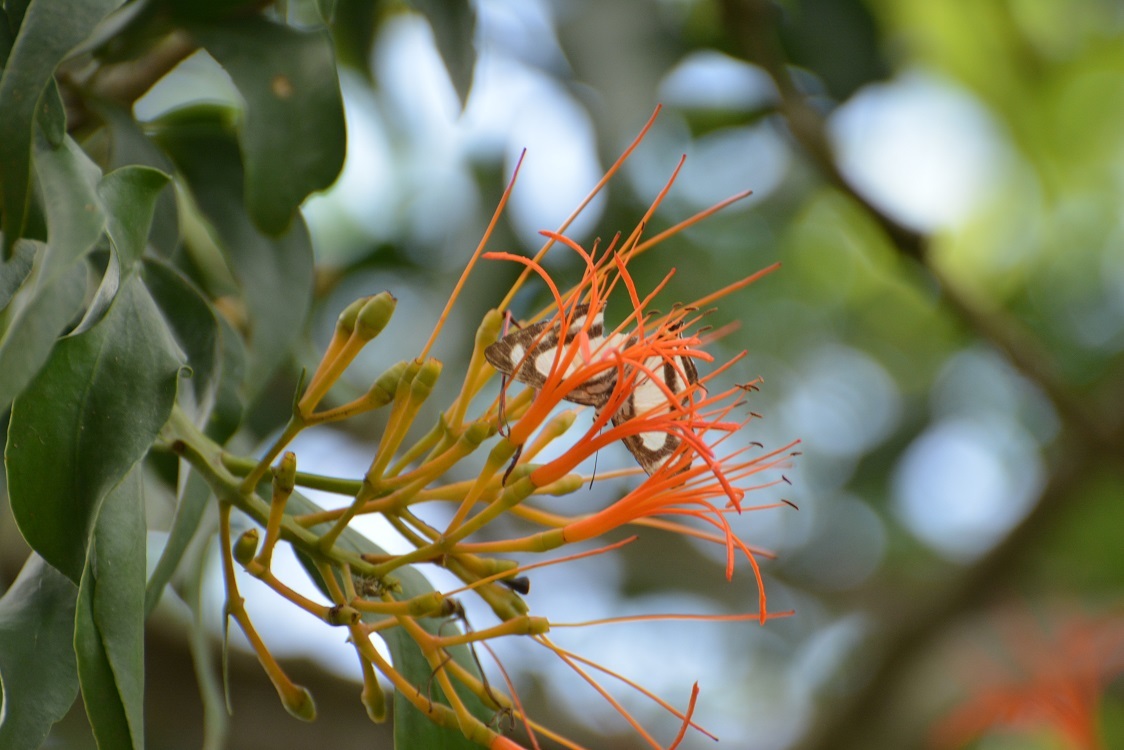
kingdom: Plantae
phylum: Tracheophyta
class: Magnoliopsida
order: Santalales
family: Loranthaceae
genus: Psittacanthus
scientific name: Psittacanthus calyculatus
